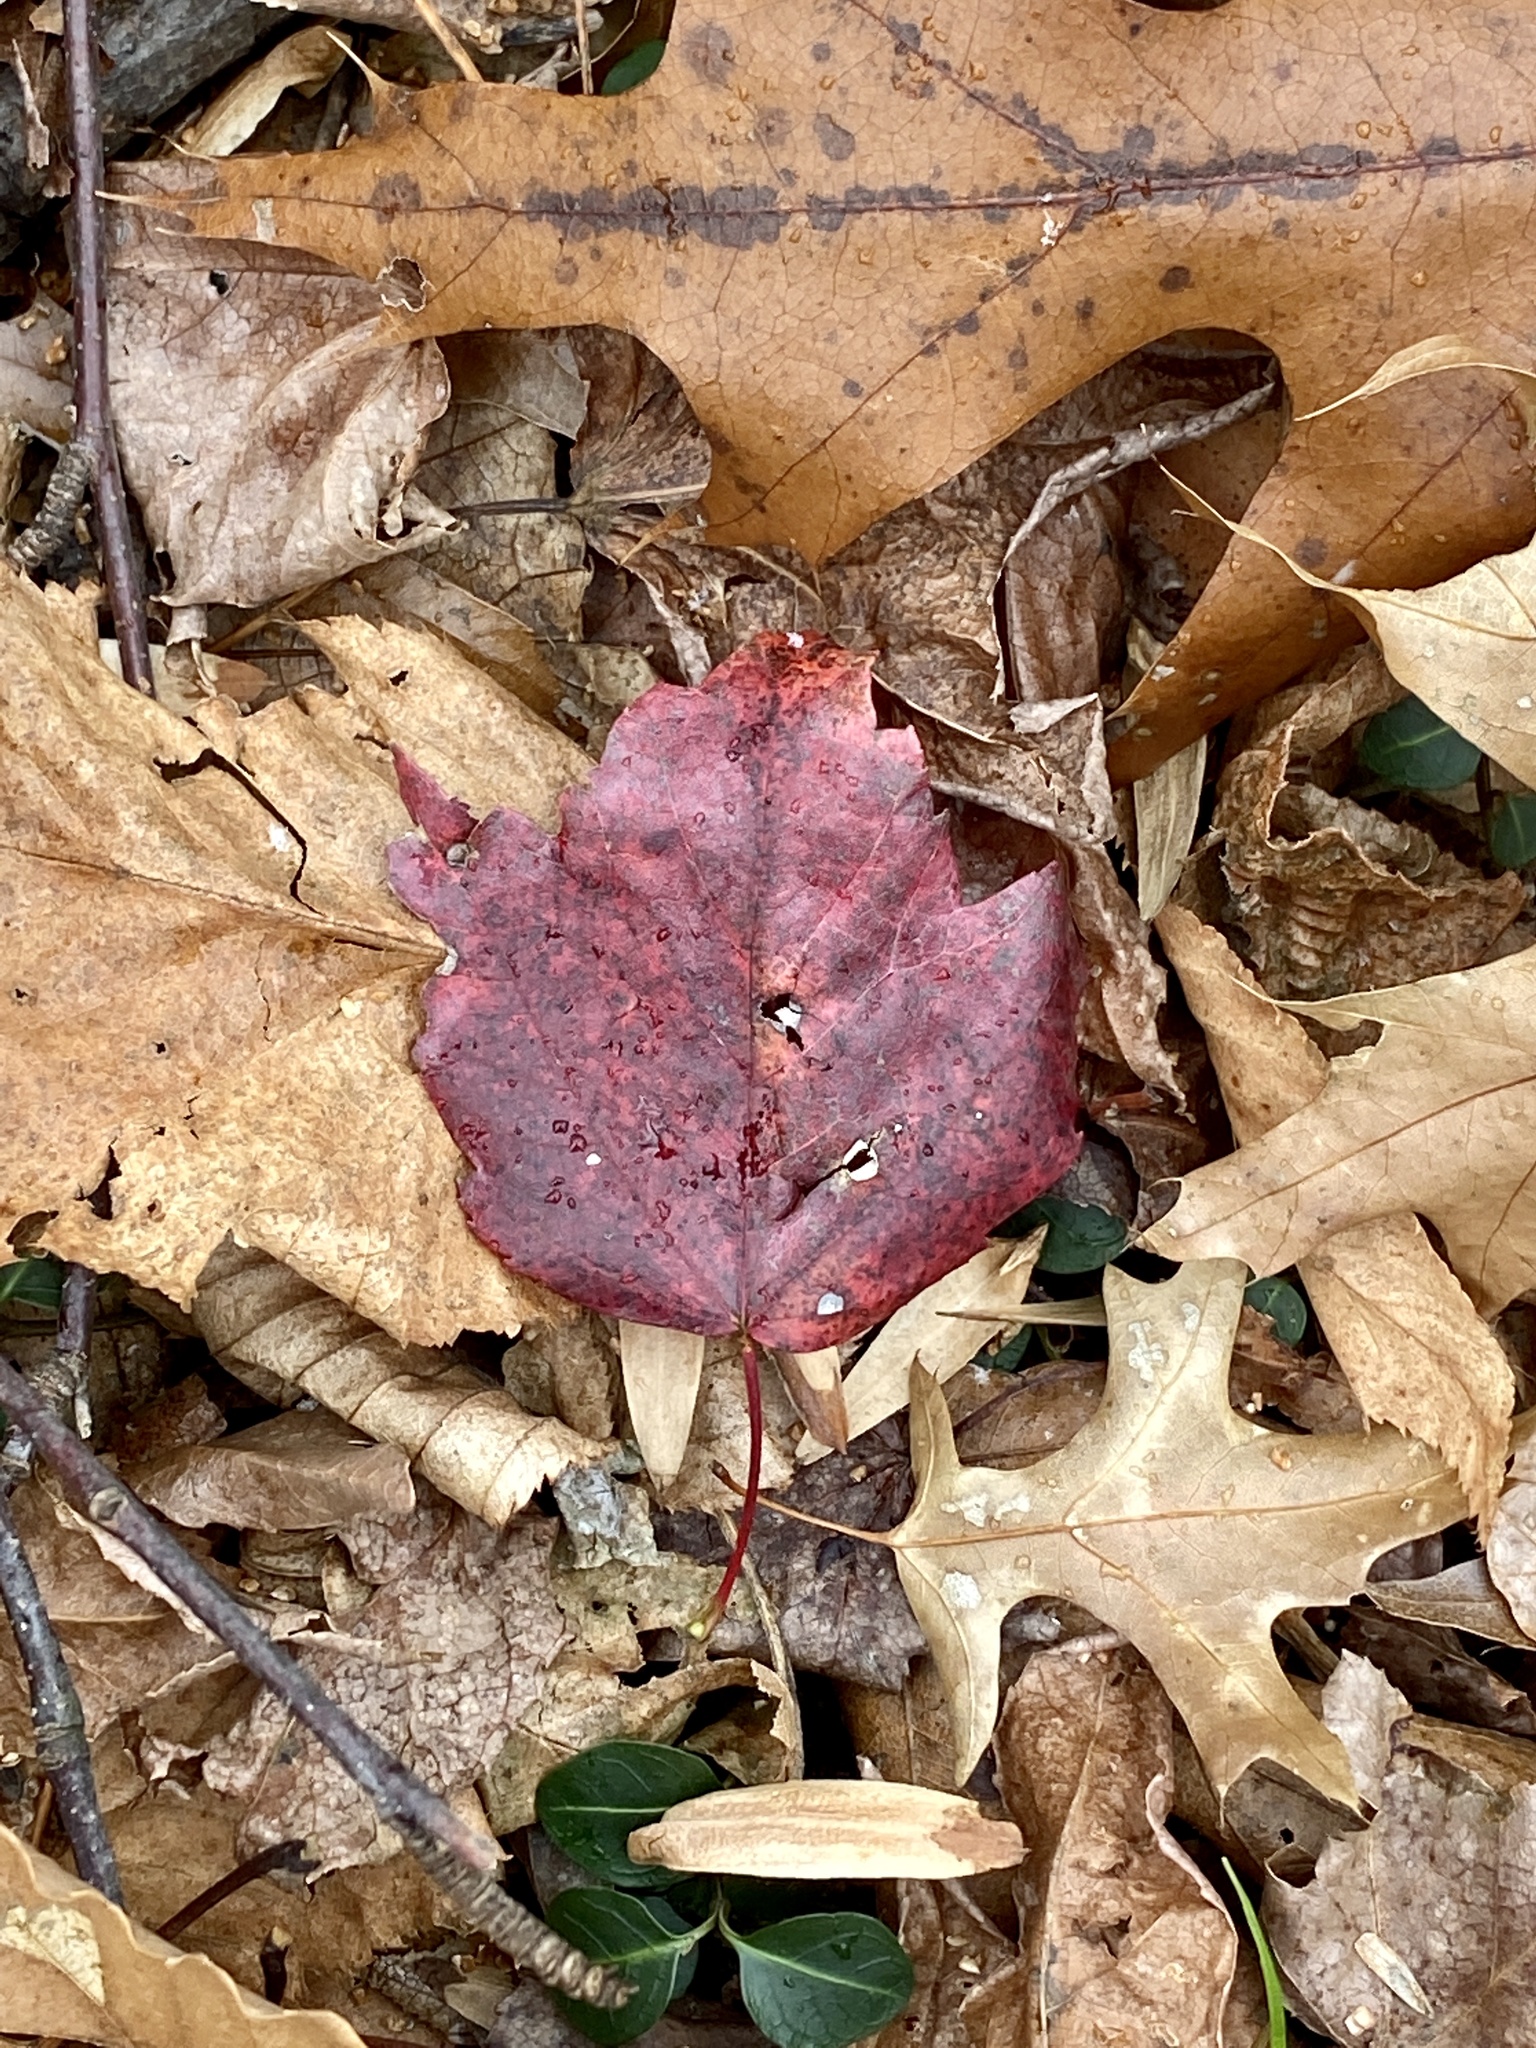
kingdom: Plantae
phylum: Tracheophyta
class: Magnoliopsida
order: Sapindales
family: Sapindaceae
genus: Acer
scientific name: Acer rubrum
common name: Red maple
